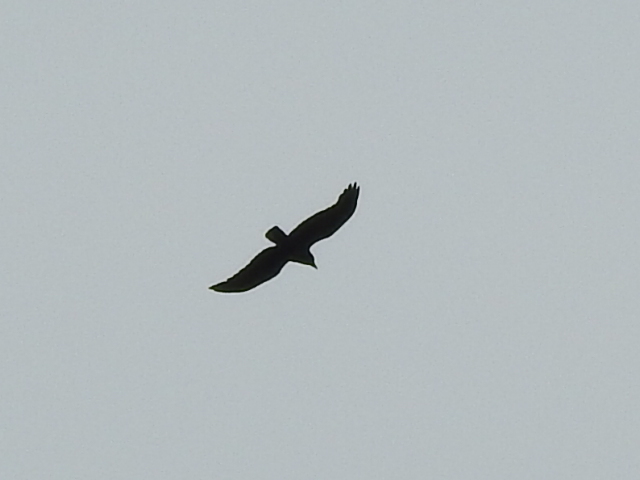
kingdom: Animalia
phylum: Chordata
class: Aves
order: Passeriformes
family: Corvidae
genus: Corvus
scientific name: Corvus brachyrhynchos
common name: American crow
